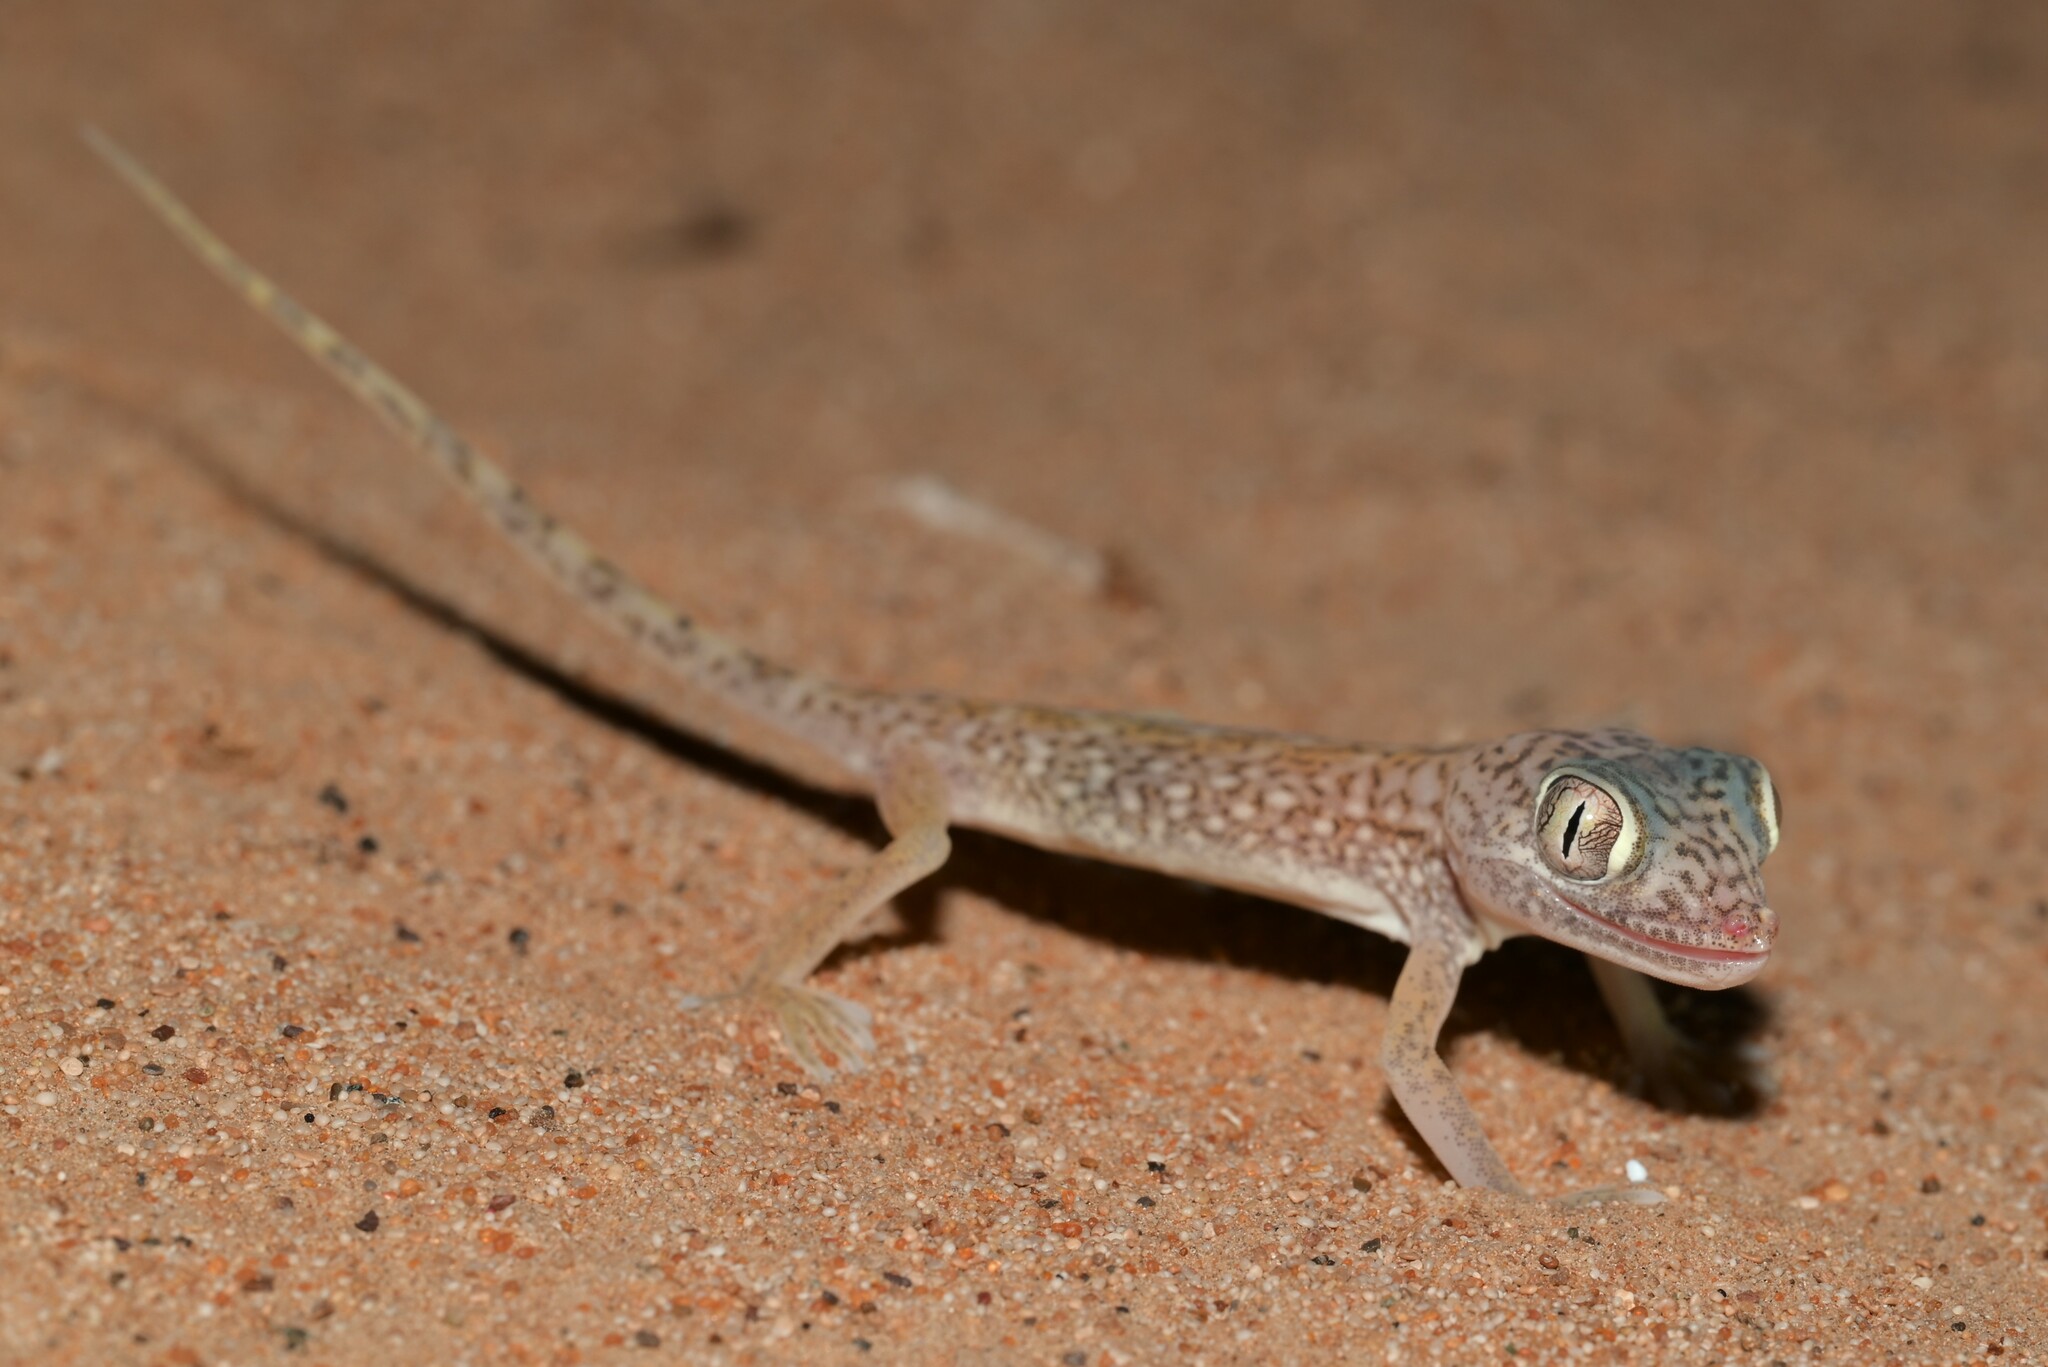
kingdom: Animalia
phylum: Chordata
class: Squamata
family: Gekkonidae
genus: Stenodactylus
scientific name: Stenodactylus doriae
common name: Dune sand gecko
